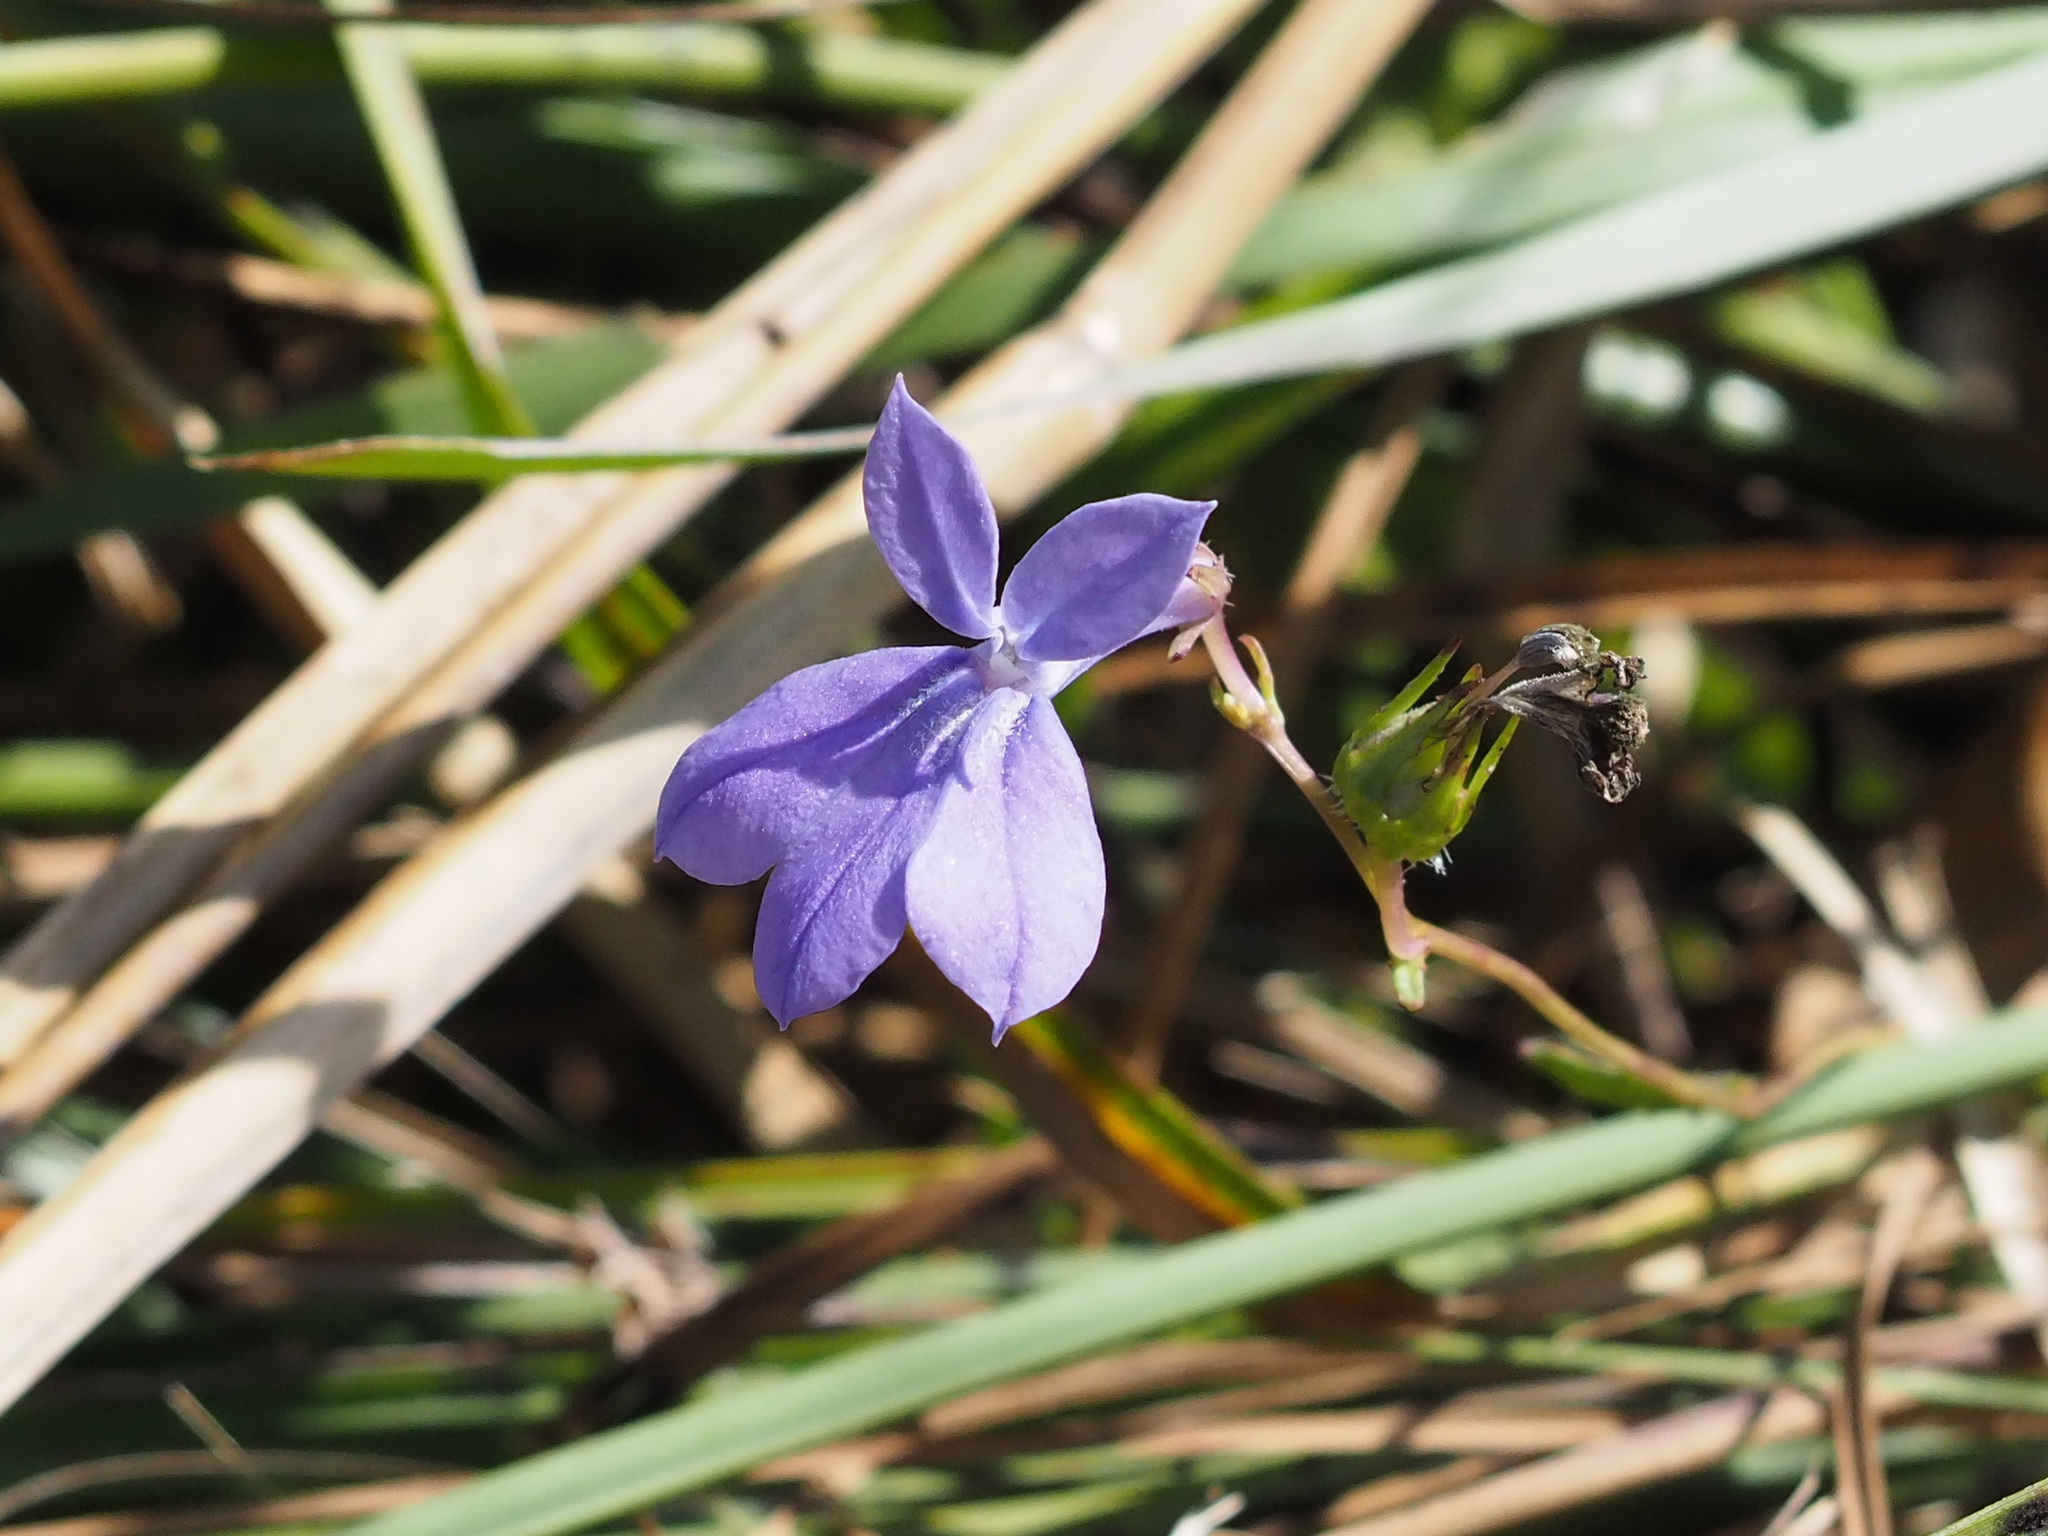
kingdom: Plantae
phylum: Tracheophyta
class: Magnoliopsida
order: Asterales
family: Campanulaceae
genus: Lobelia
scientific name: Lobelia glandulosa
